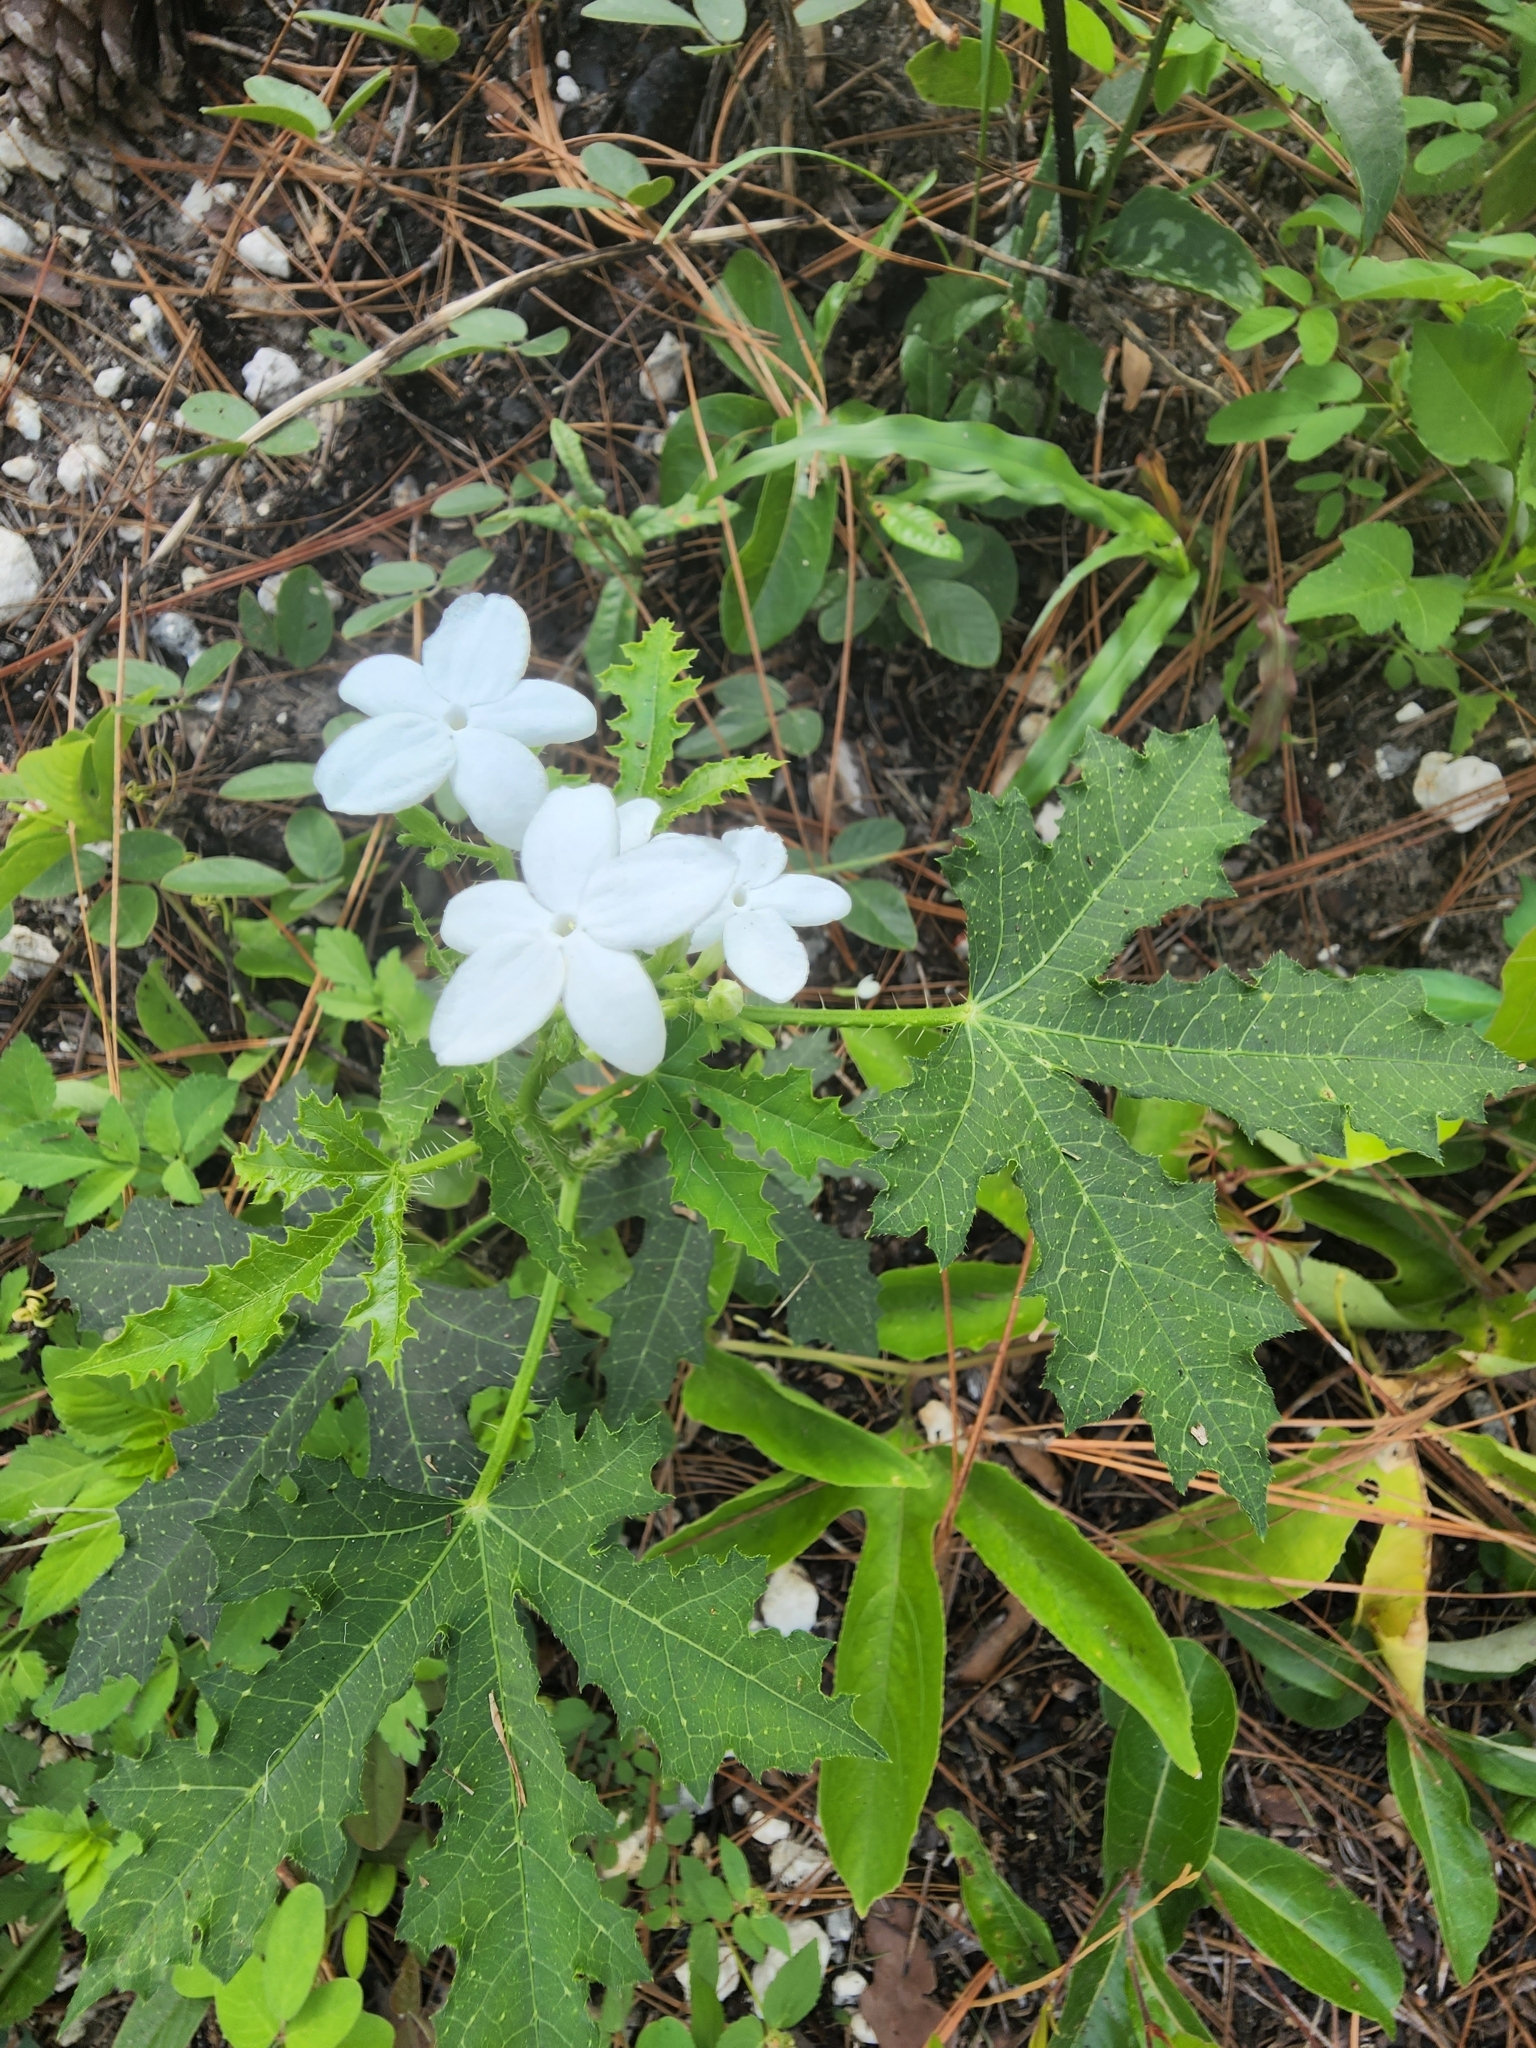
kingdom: Plantae
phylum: Tracheophyta
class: Magnoliopsida
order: Malpighiales
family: Euphorbiaceae
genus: Cnidoscolus
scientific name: Cnidoscolus stimulosus
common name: Bull-nettle
